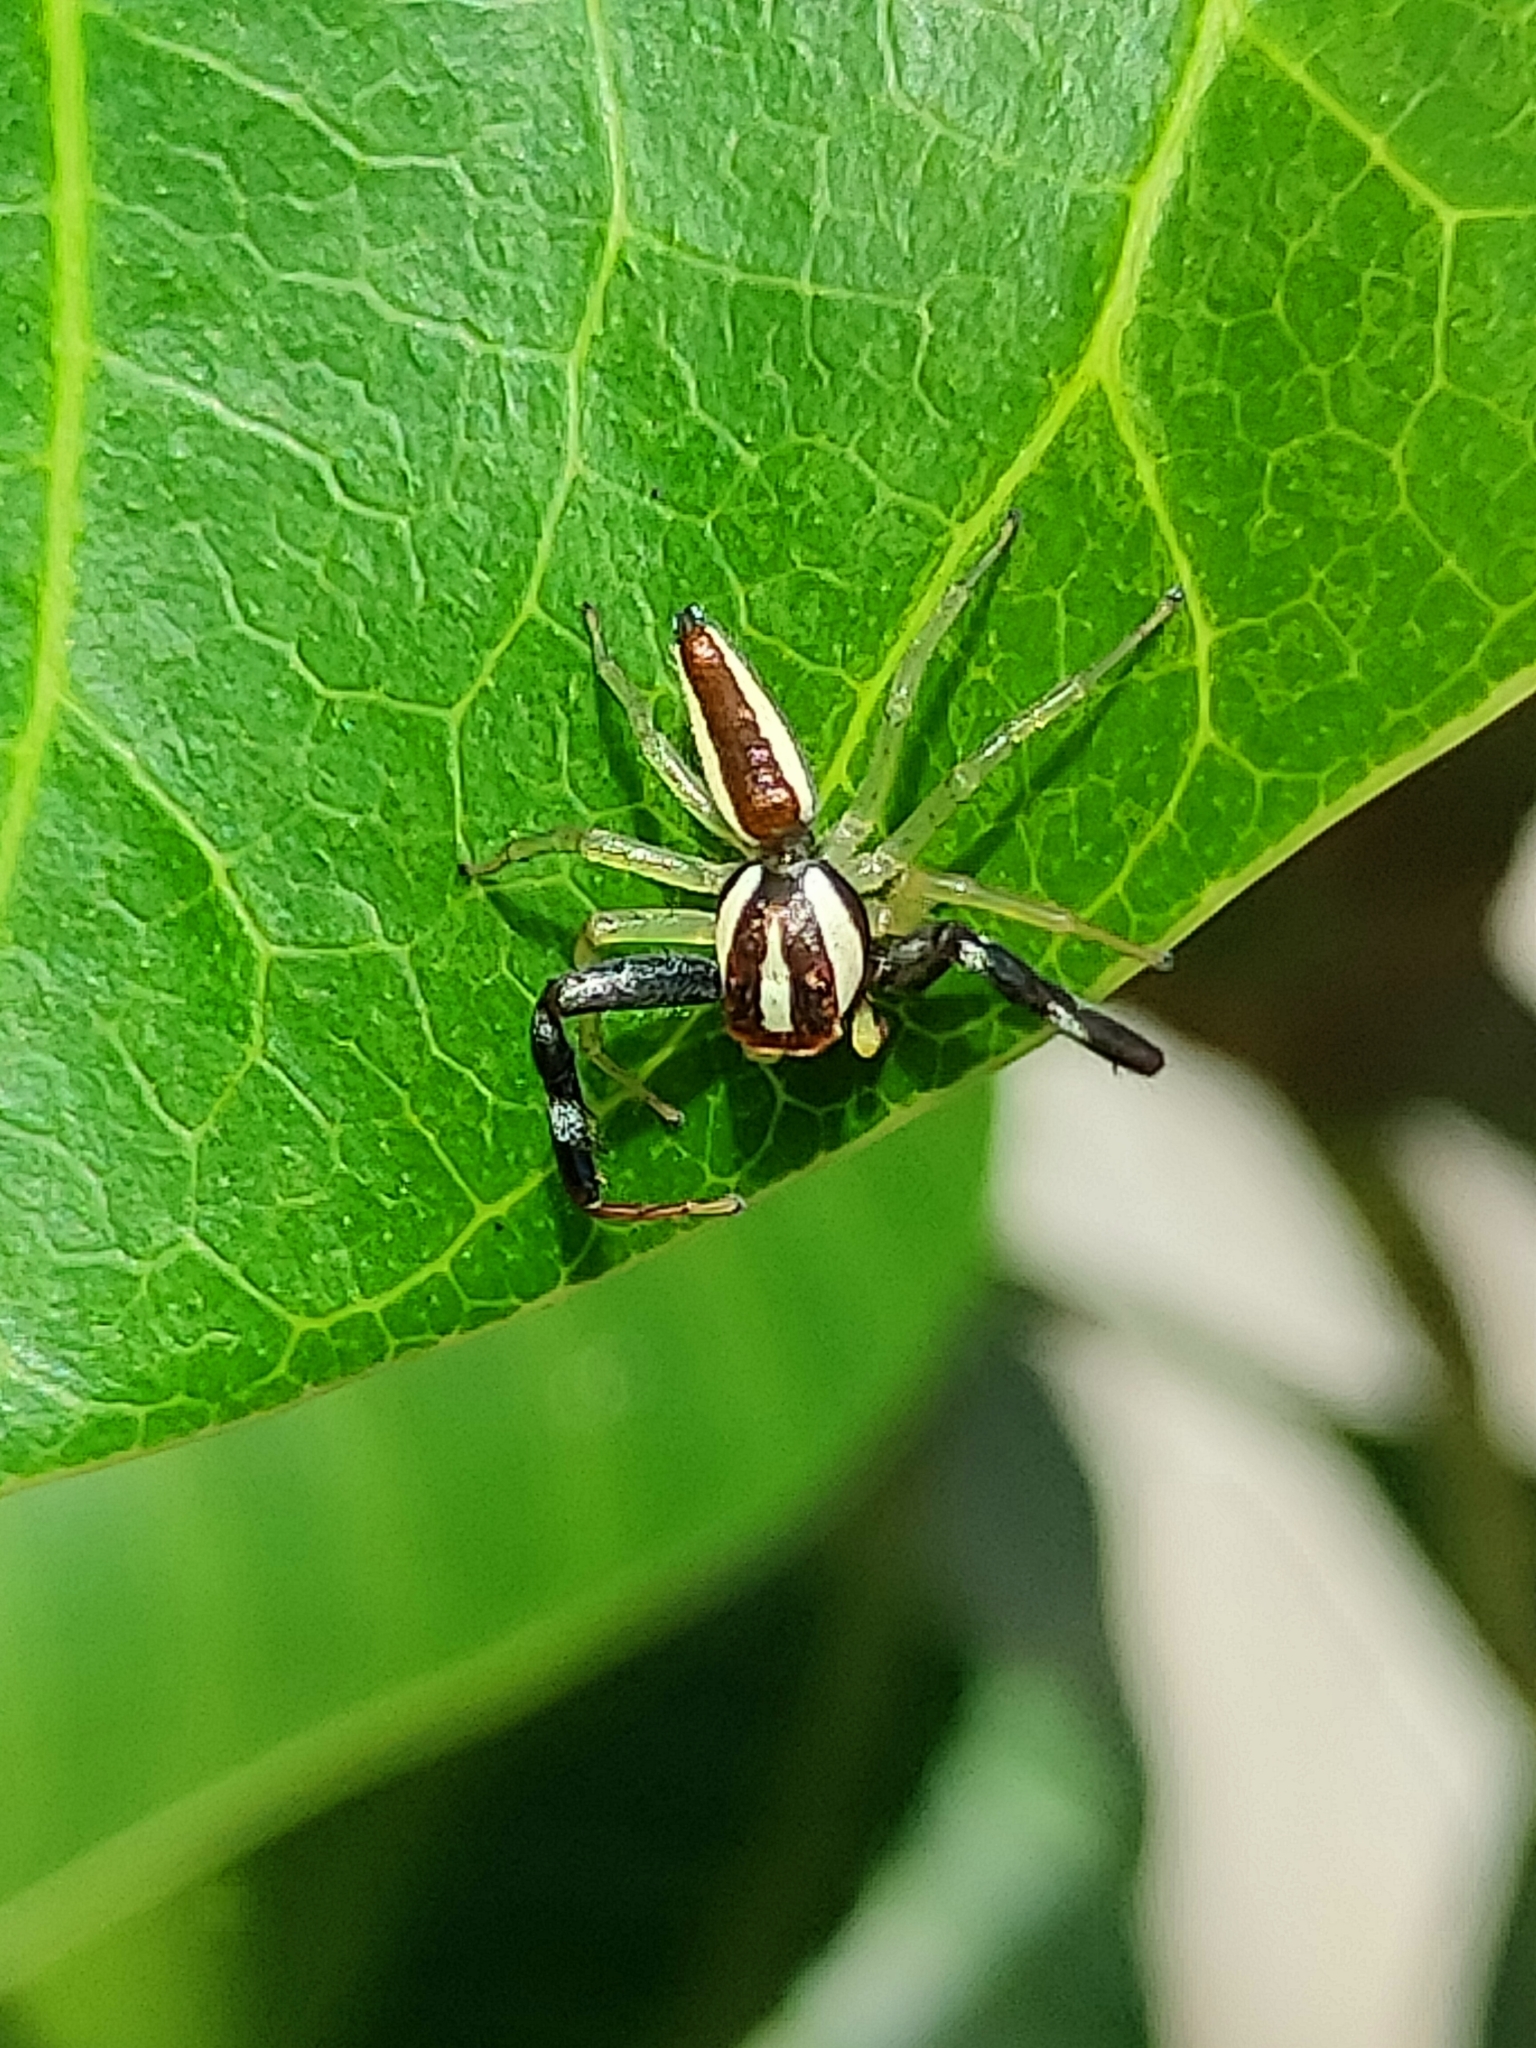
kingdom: Animalia
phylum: Arthropoda
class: Arachnida
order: Araneae
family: Salticidae
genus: Epocilla
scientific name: Epocilla calcarata
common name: Jumping spider
